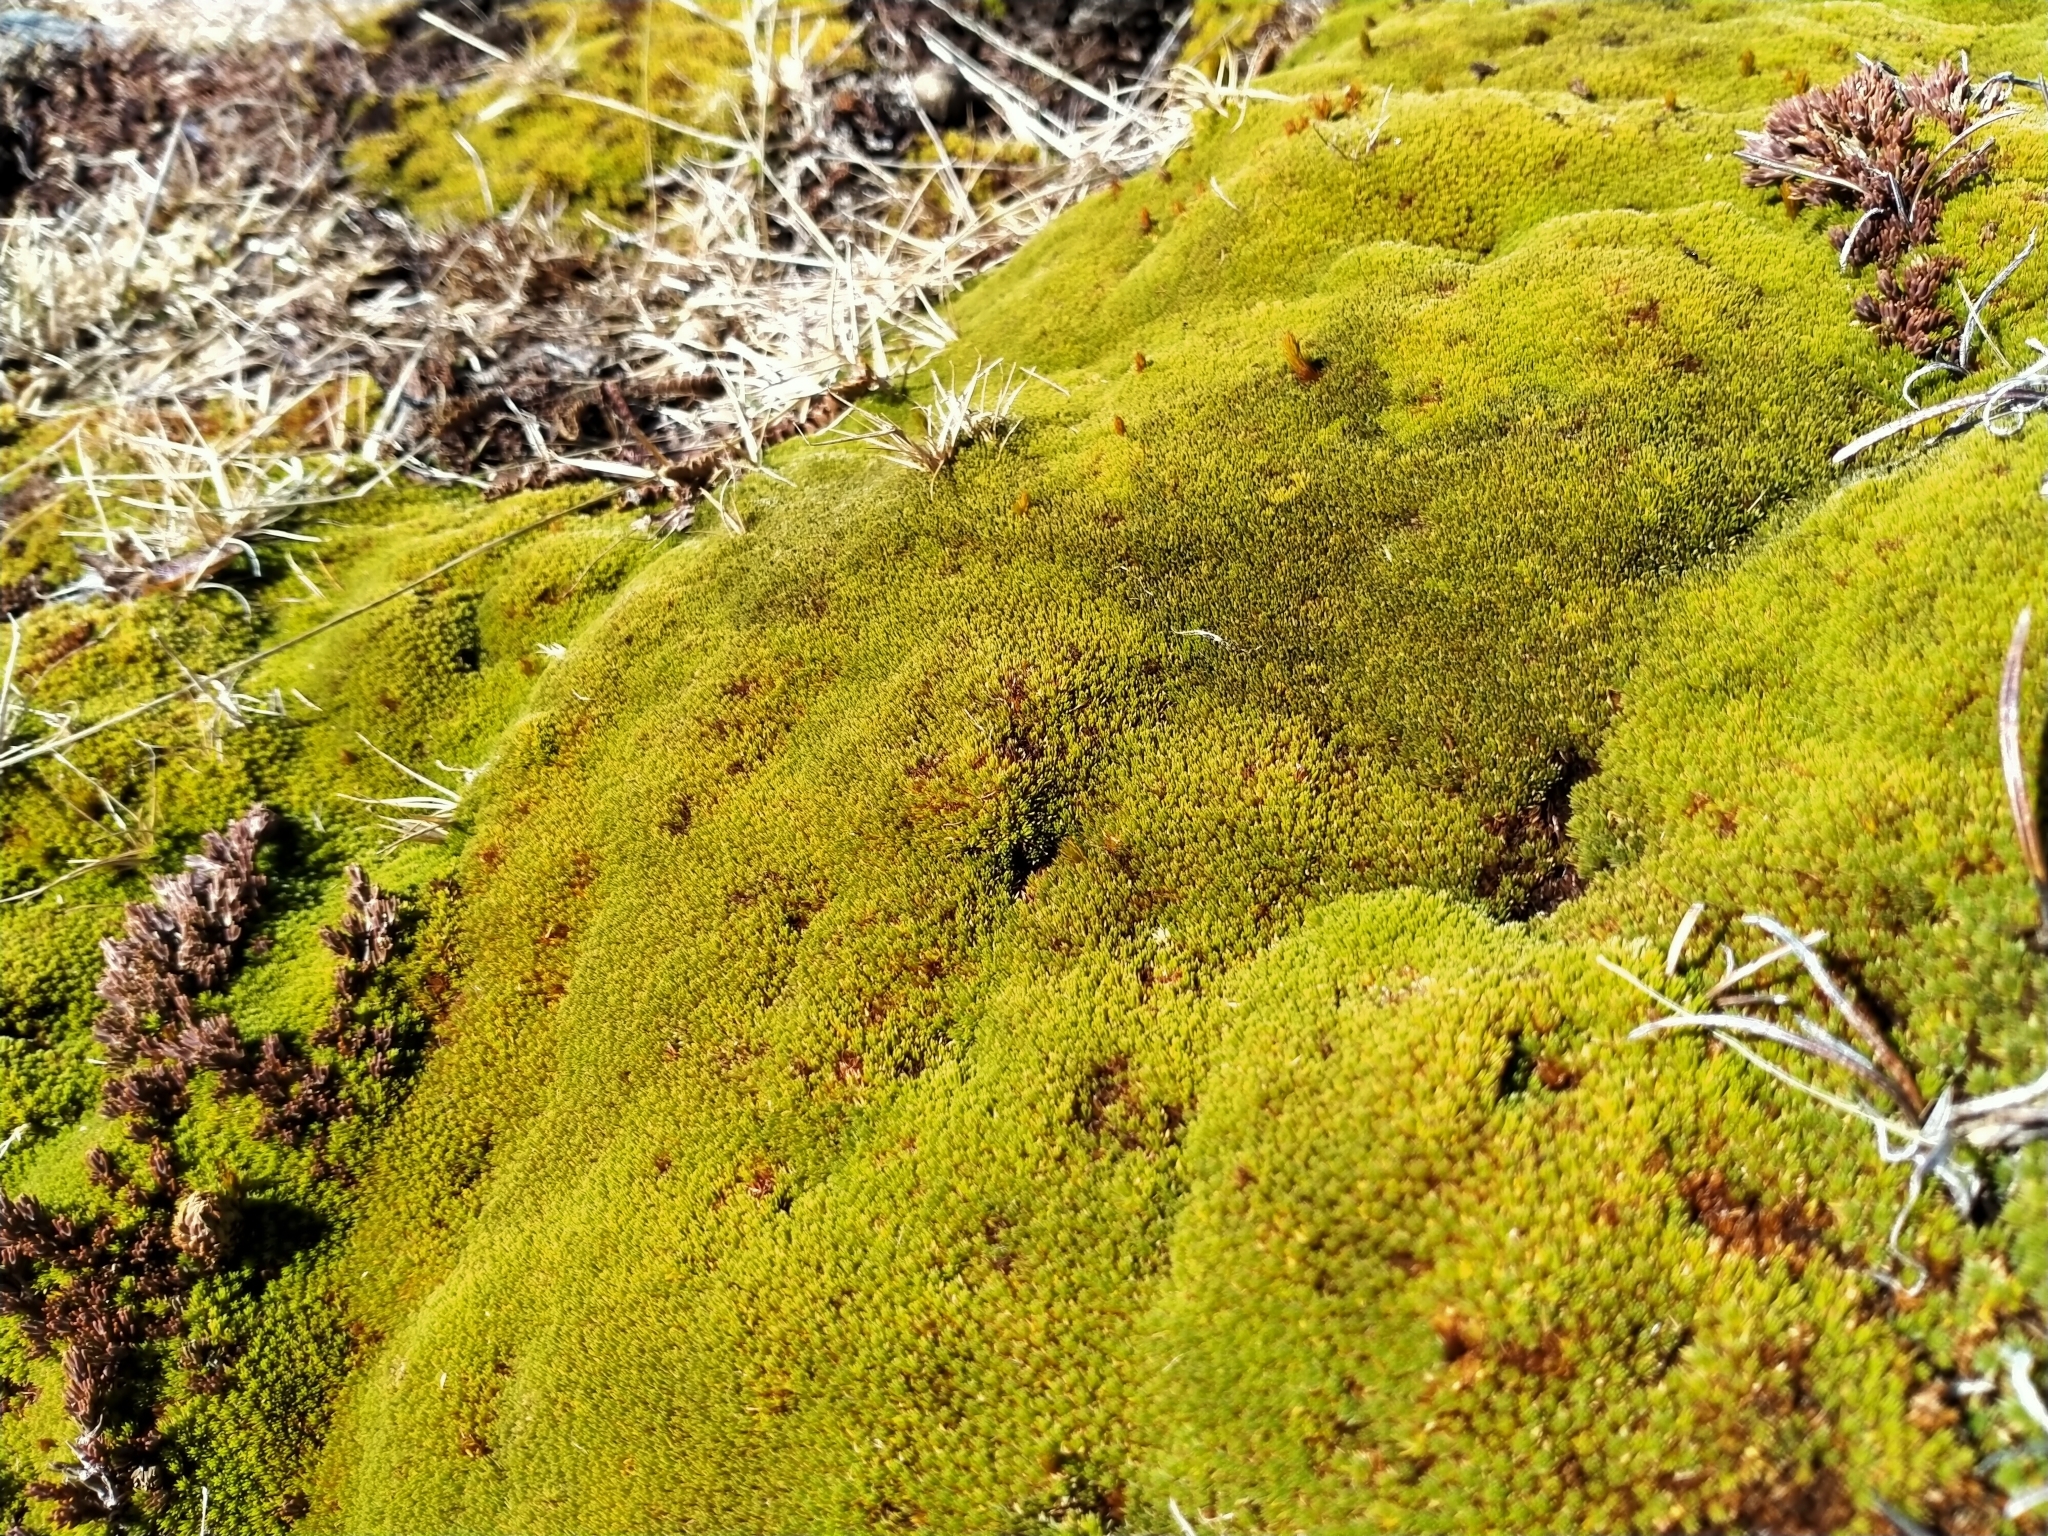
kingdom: Plantae
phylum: Tracheophyta
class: Magnoliopsida
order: Malvales
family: Thymelaeaceae
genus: Kelleria
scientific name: Kelleria childii
